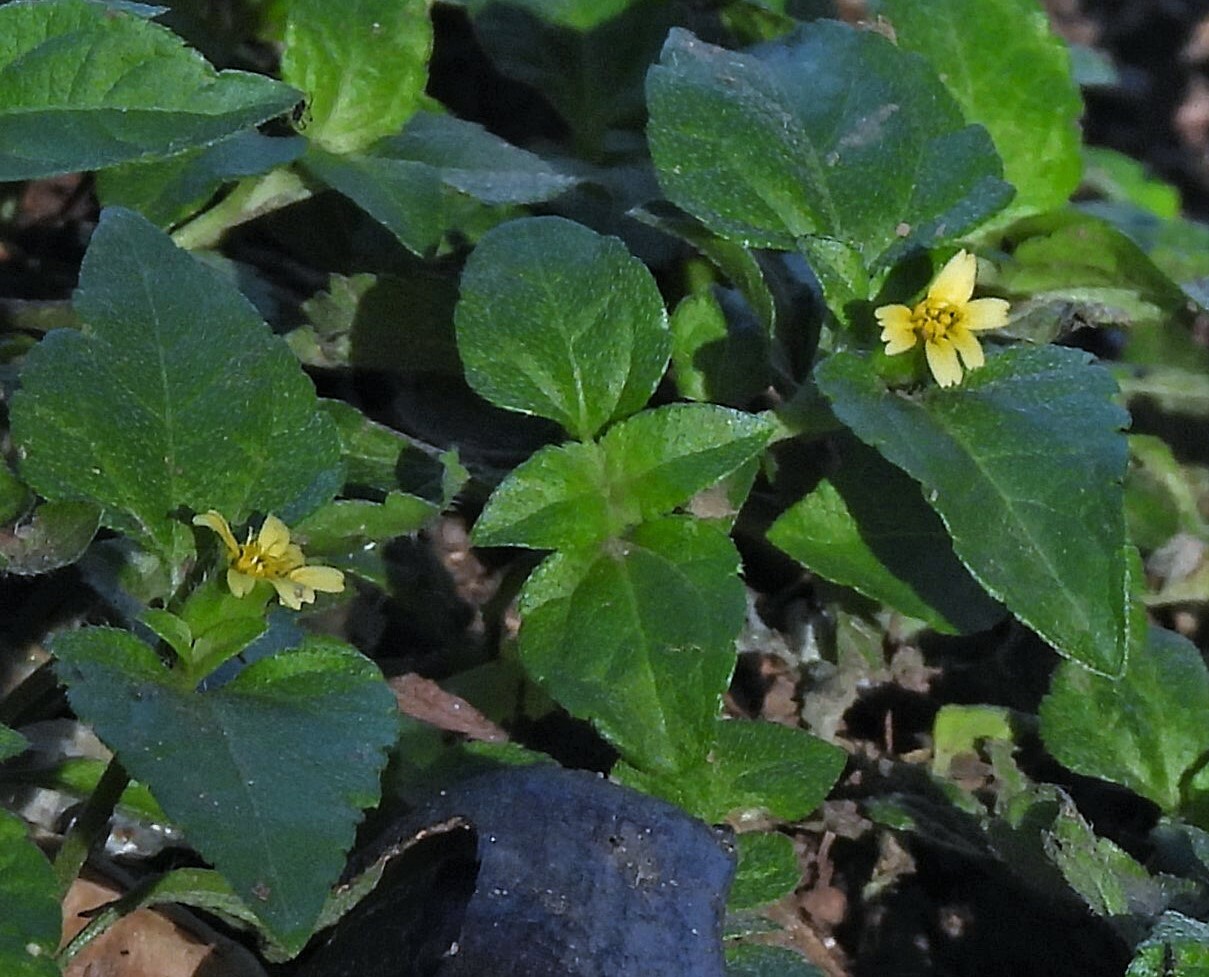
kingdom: Plantae
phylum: Tracheophyta
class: Magnoliopsida
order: Asterales
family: Asteraceae
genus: Calyptocarpus
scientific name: Calyptocarpus brasiliensis
